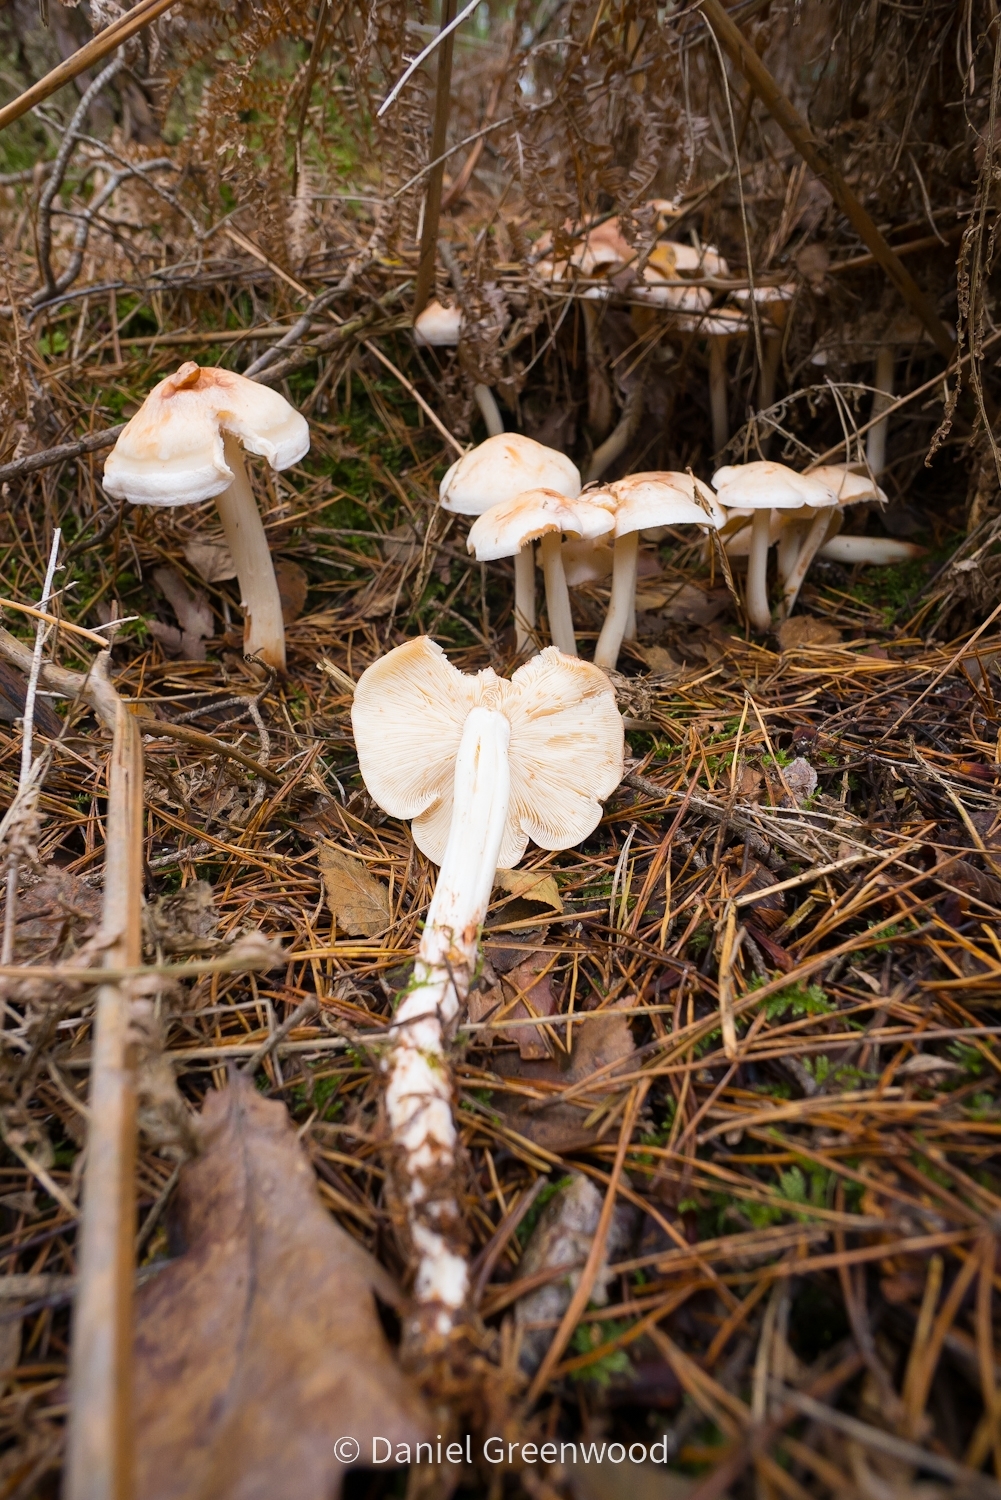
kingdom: Fungi
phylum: Basidiomycota
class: Agaricomycetes
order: Agaricales
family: Omphalotaceae
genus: Rhodocollybia
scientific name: Rhodocollybia maculata
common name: Spotted tough-shank
